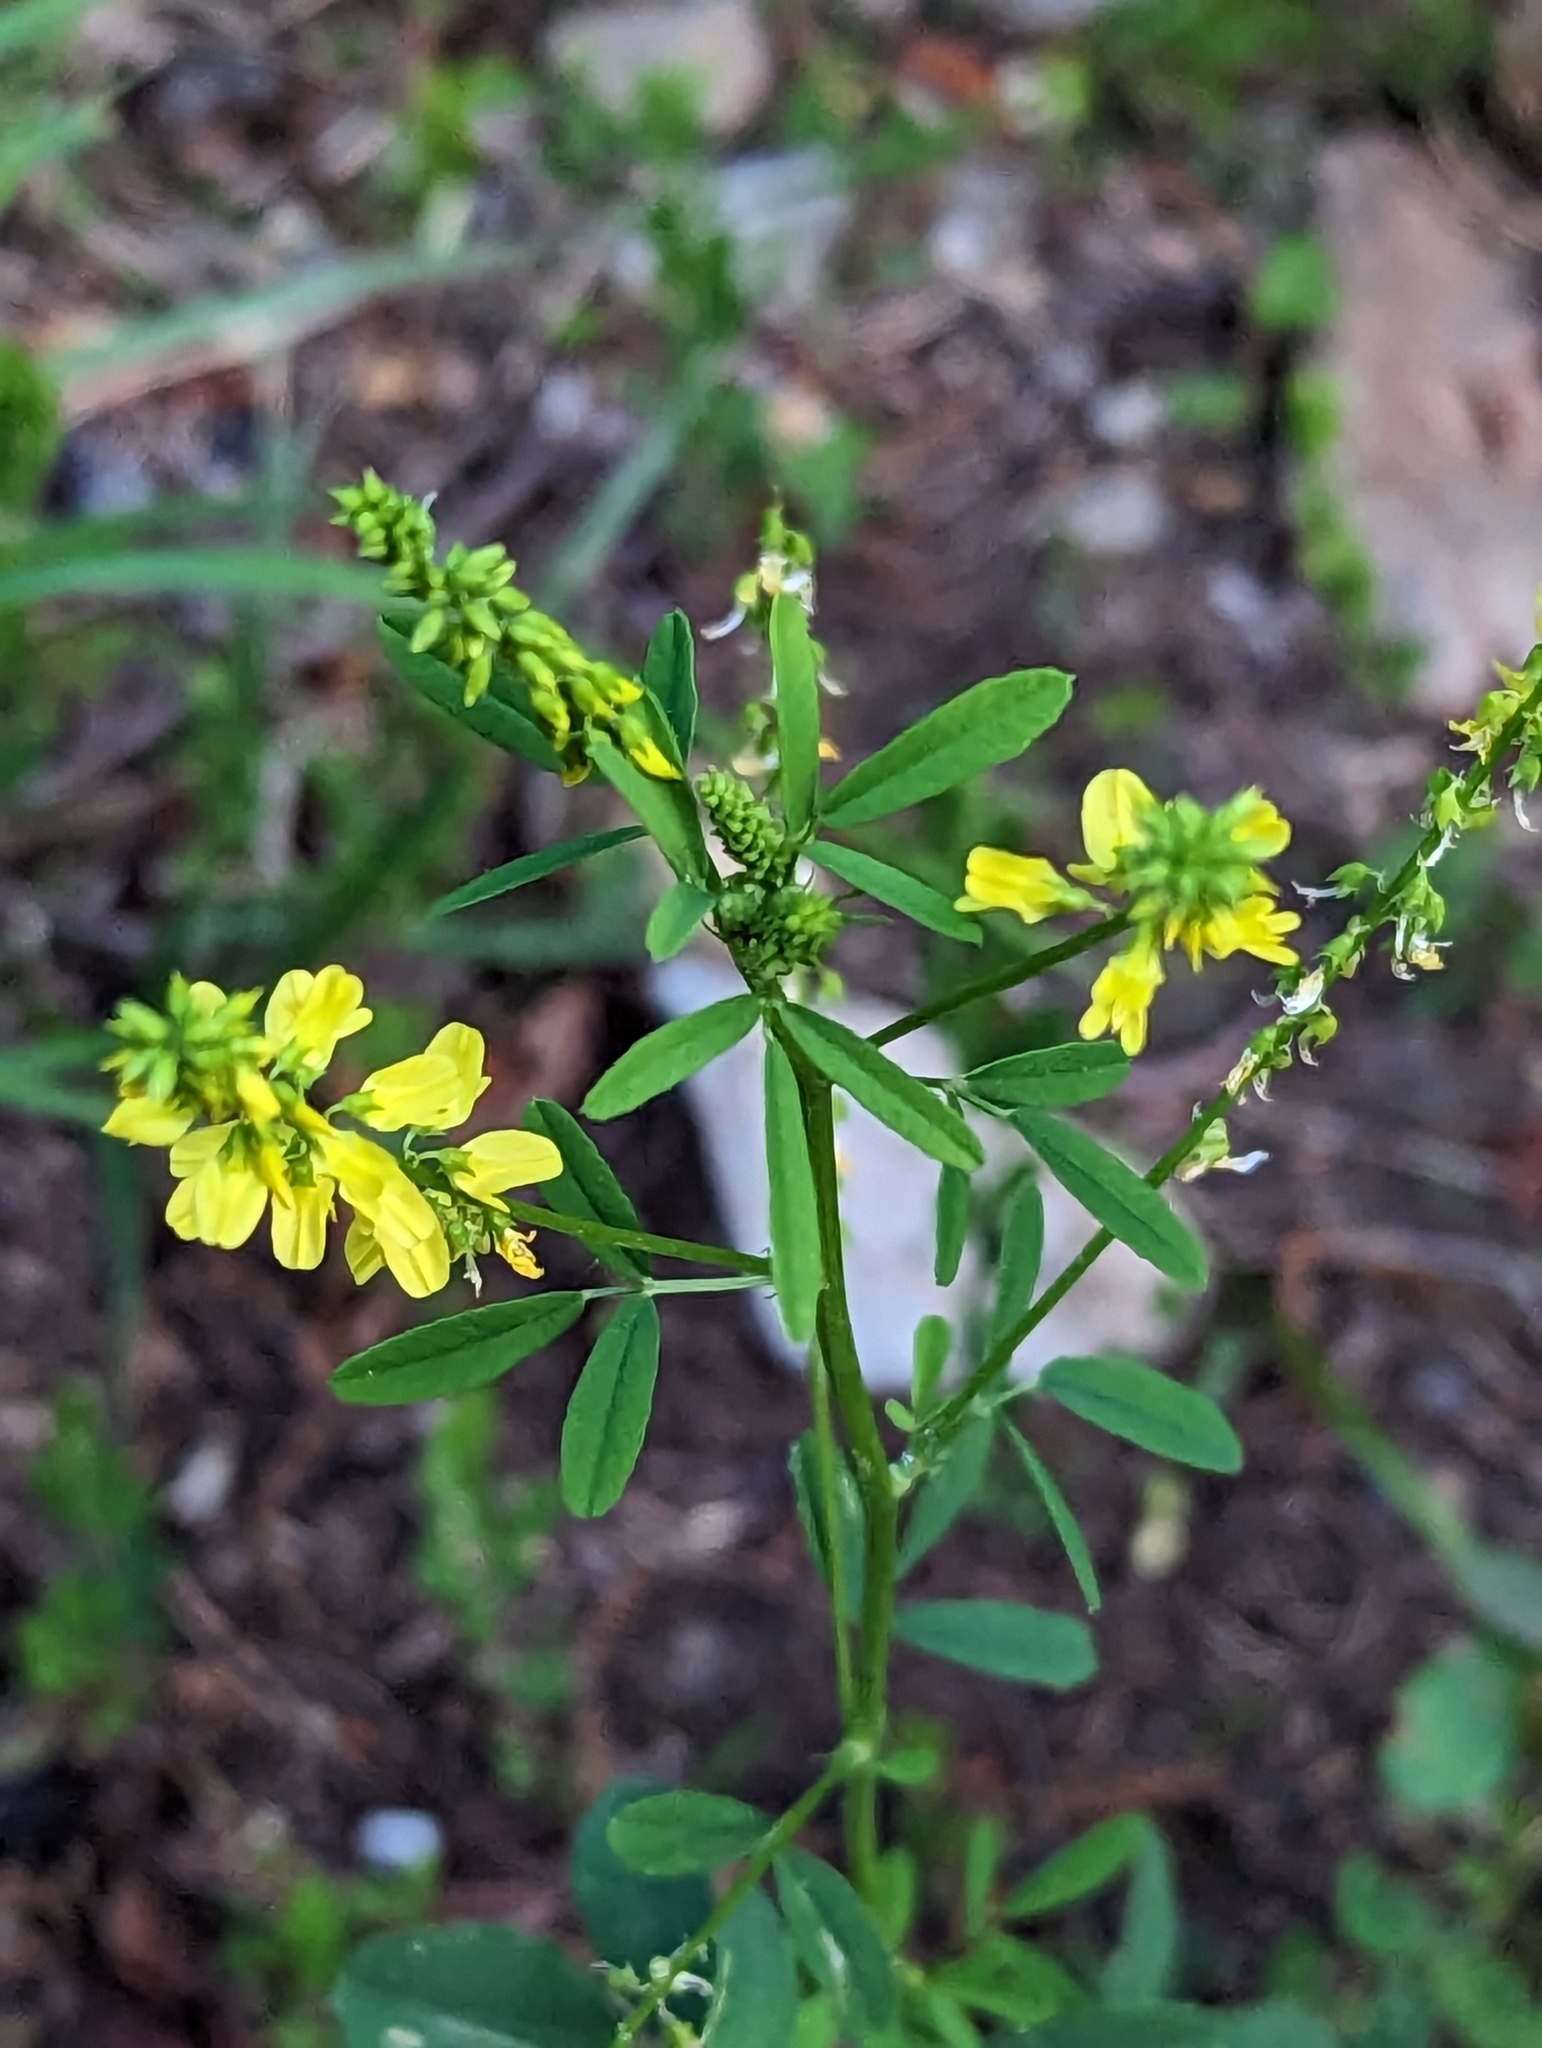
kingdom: Plantae
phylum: Tracheophyta
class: Magnoliopsida
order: Fabales
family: Fabaceae
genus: Melilotus
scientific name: Melilotus officinalis
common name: Sweetclover
